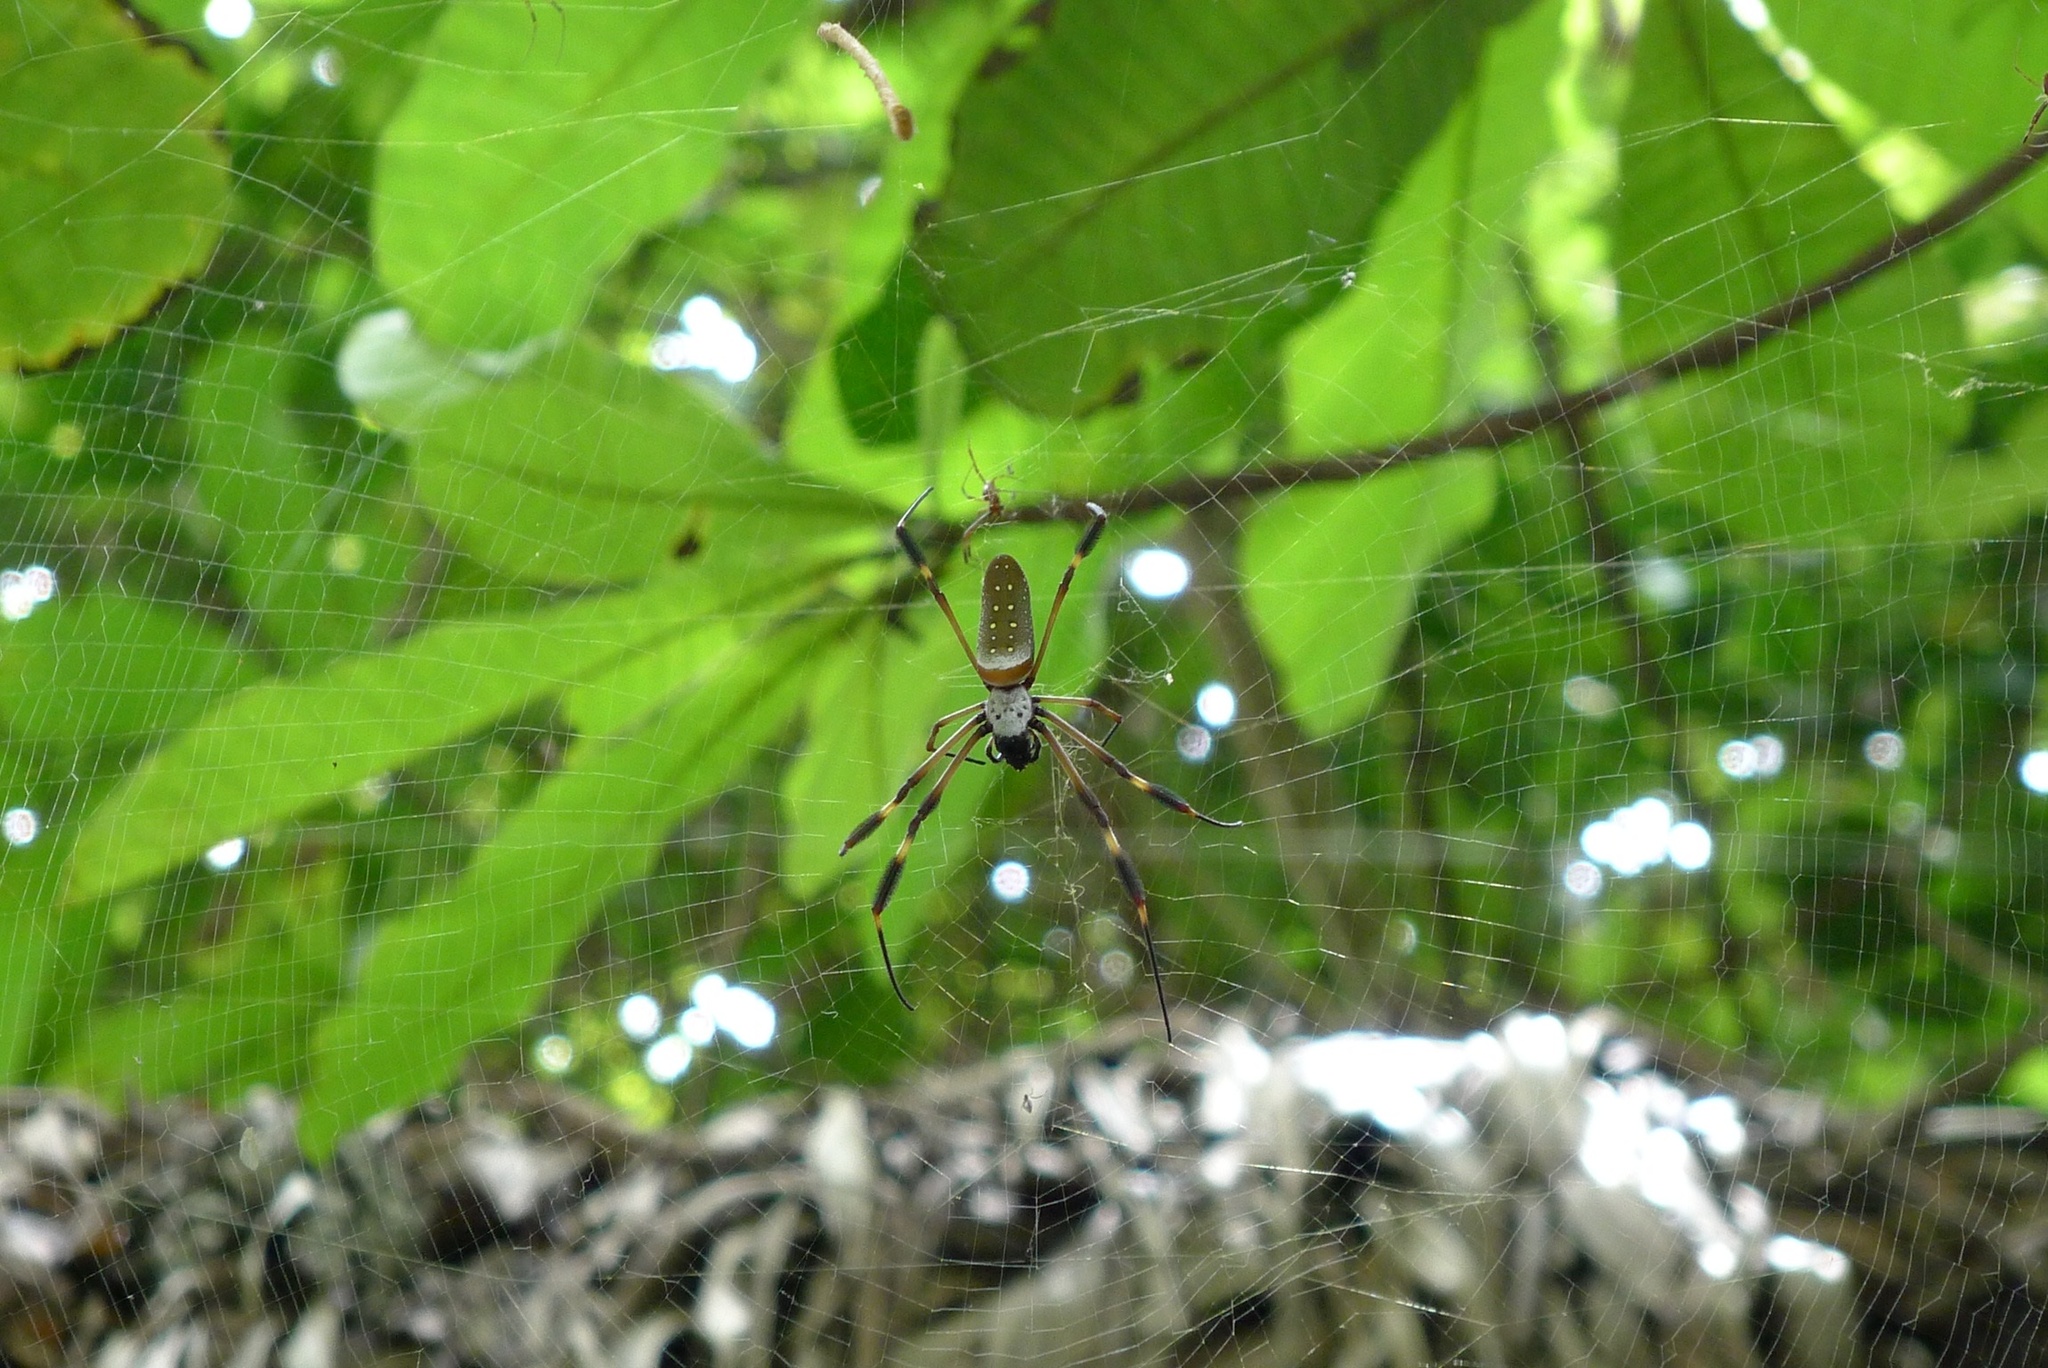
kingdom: Animalia
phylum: Arthropoda
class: Arachnida
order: Araneae
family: Araneidae
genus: Trichonephila
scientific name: Trichonephila clavipes
